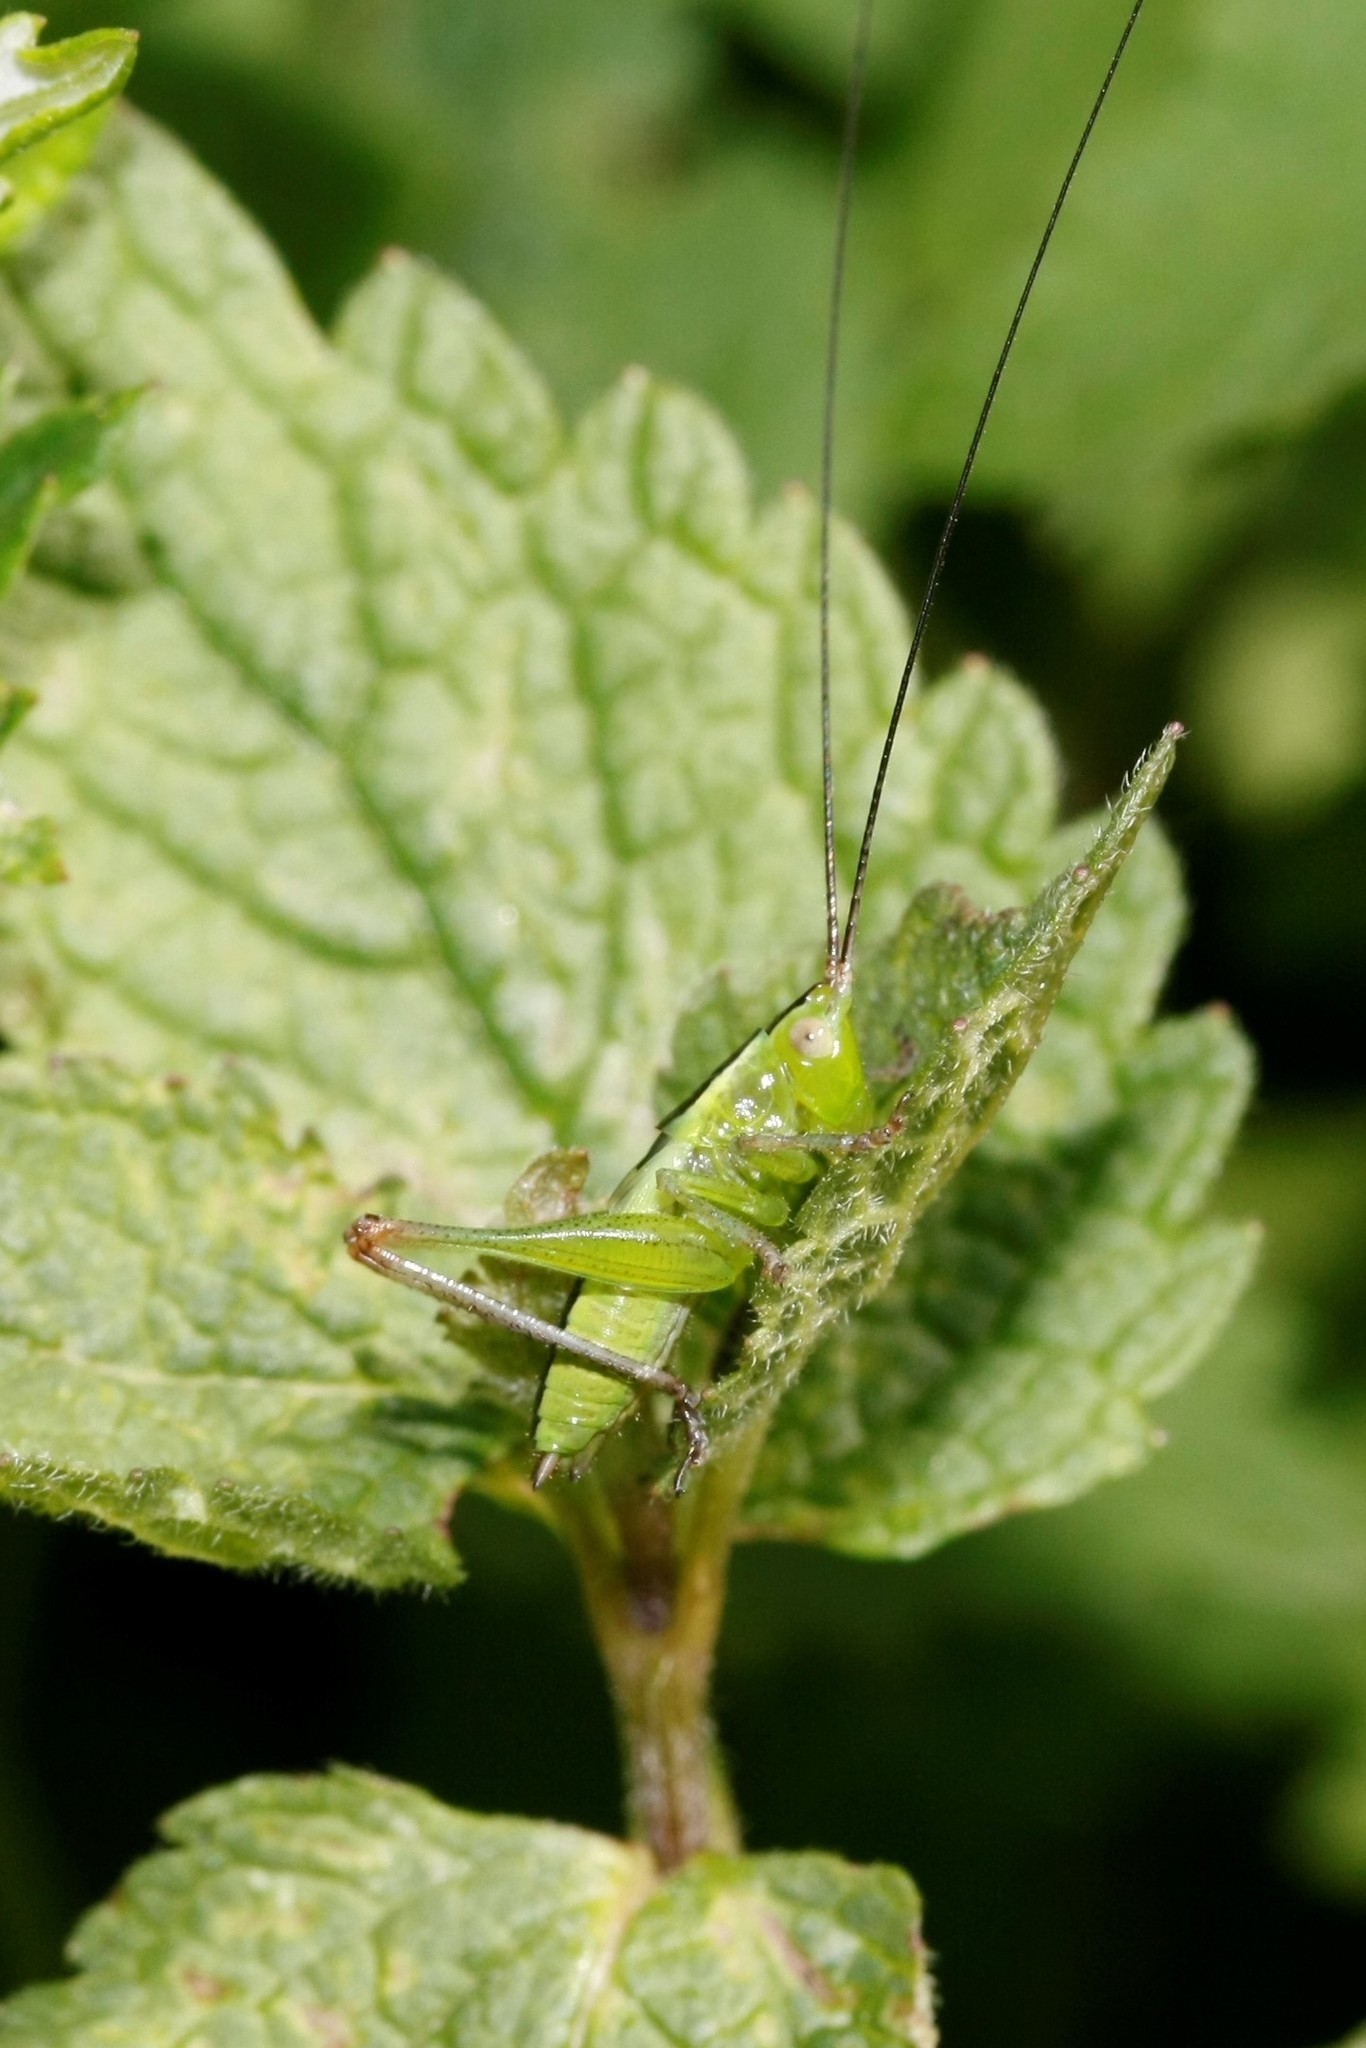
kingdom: Animalia
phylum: Arthropoda
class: Insecta
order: Orthoptera
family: Tettigoniidae
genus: Conocephalus
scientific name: Conocephalus fuscus
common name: Long-winged conehead
